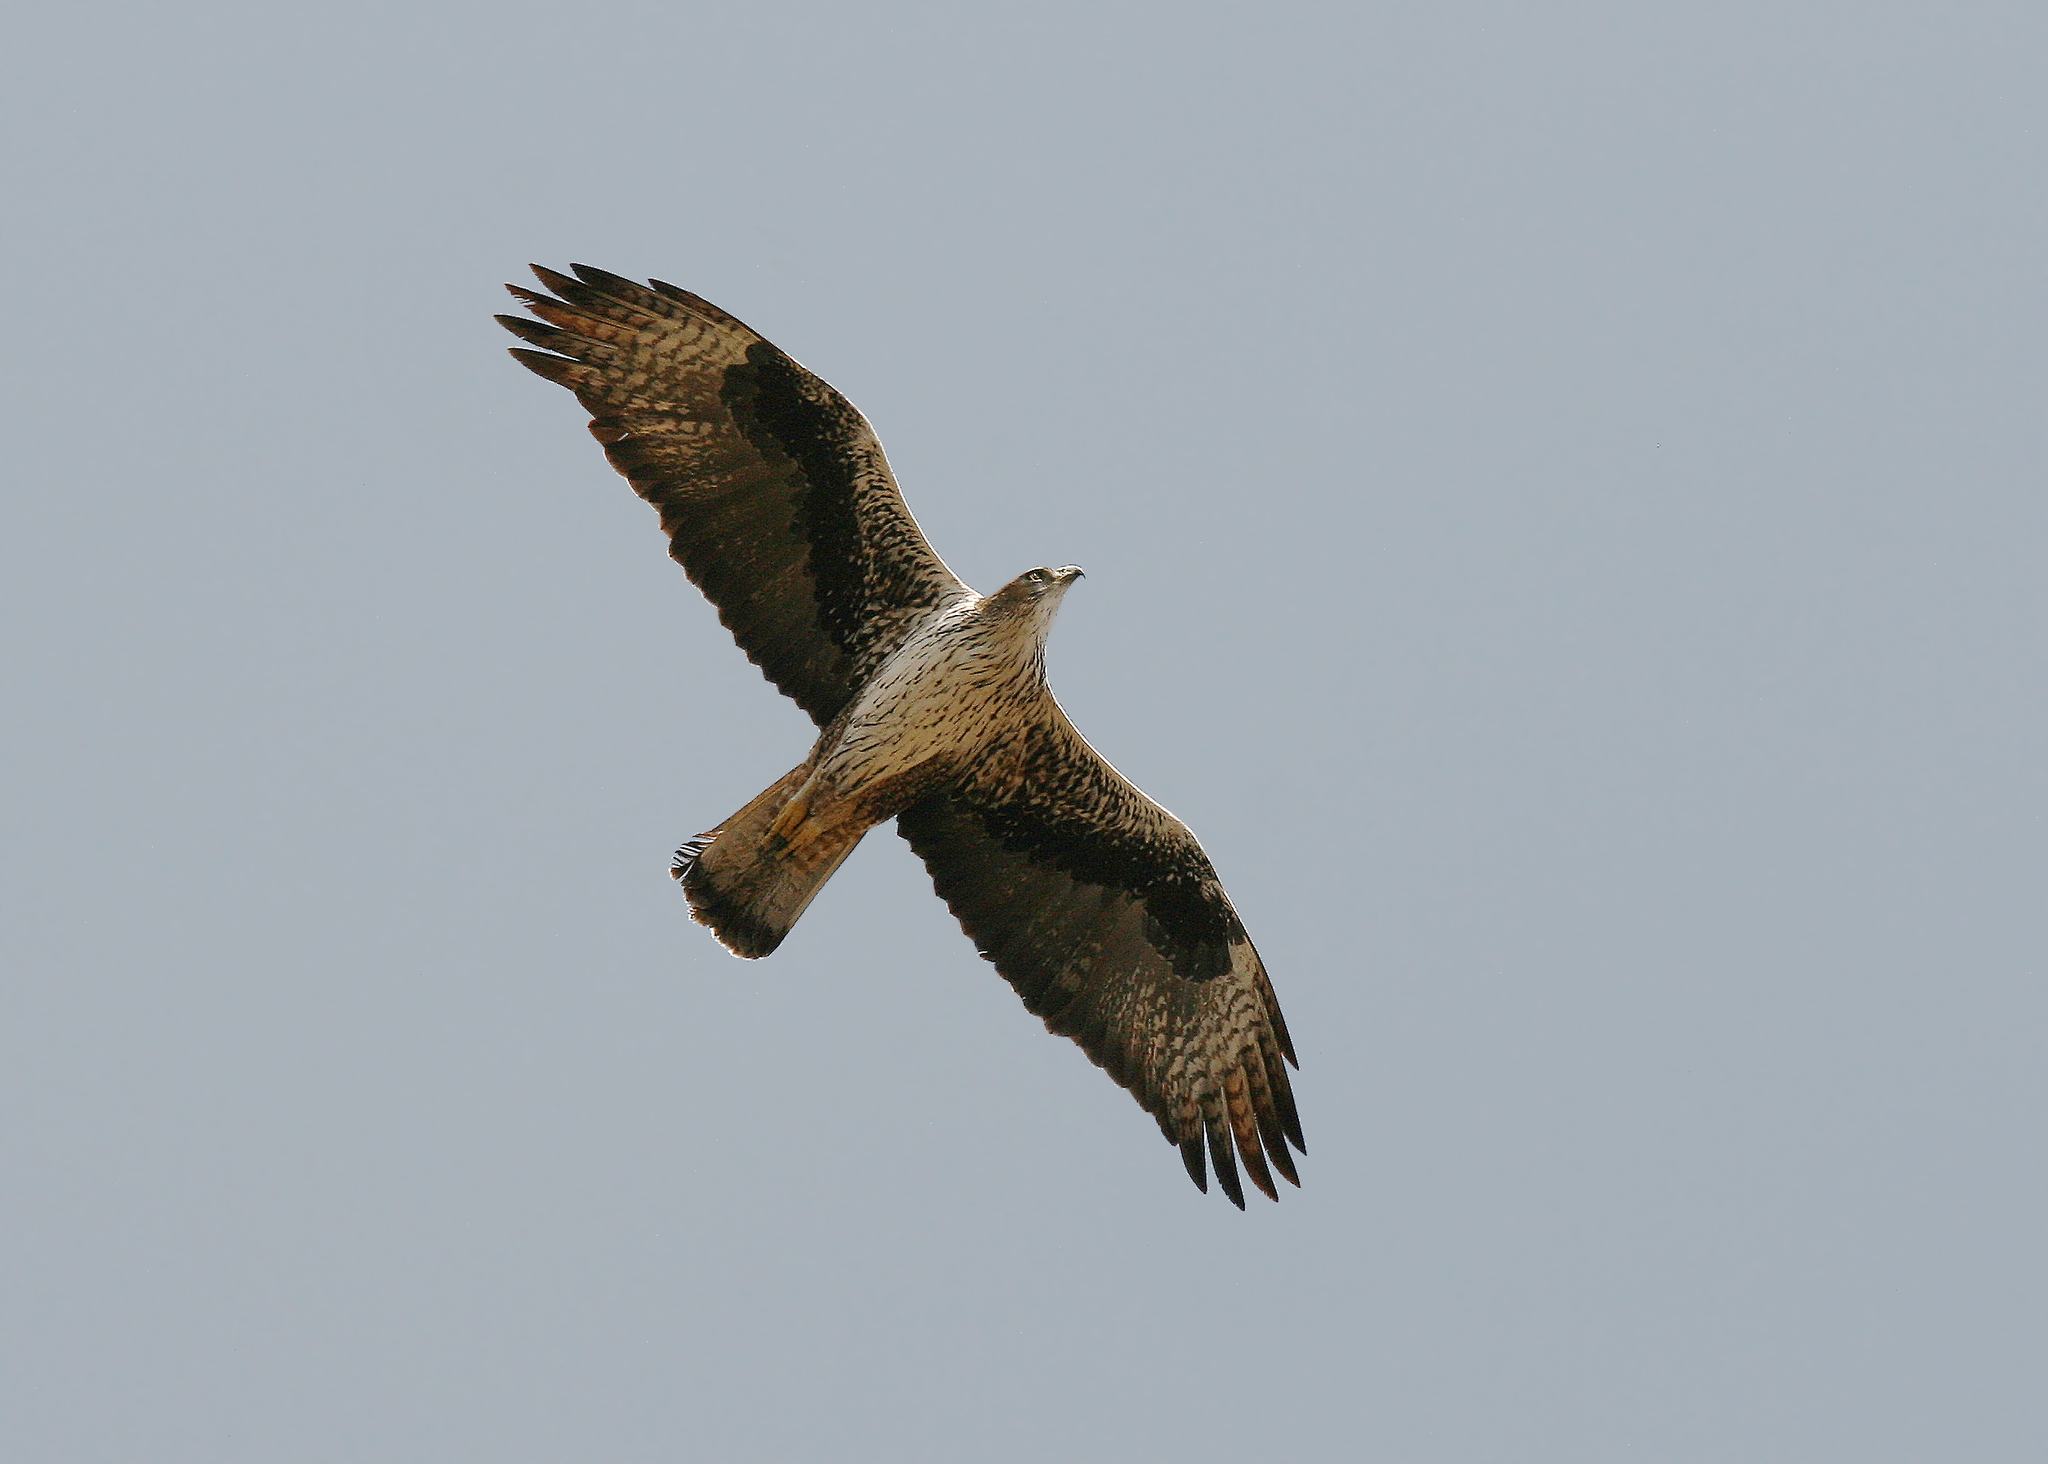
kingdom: Animalia
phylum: Chordata
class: Aves
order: Accipitriformes
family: Accipitridae
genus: Aquila
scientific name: Aquila fasciata
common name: Bonelli's eagle
